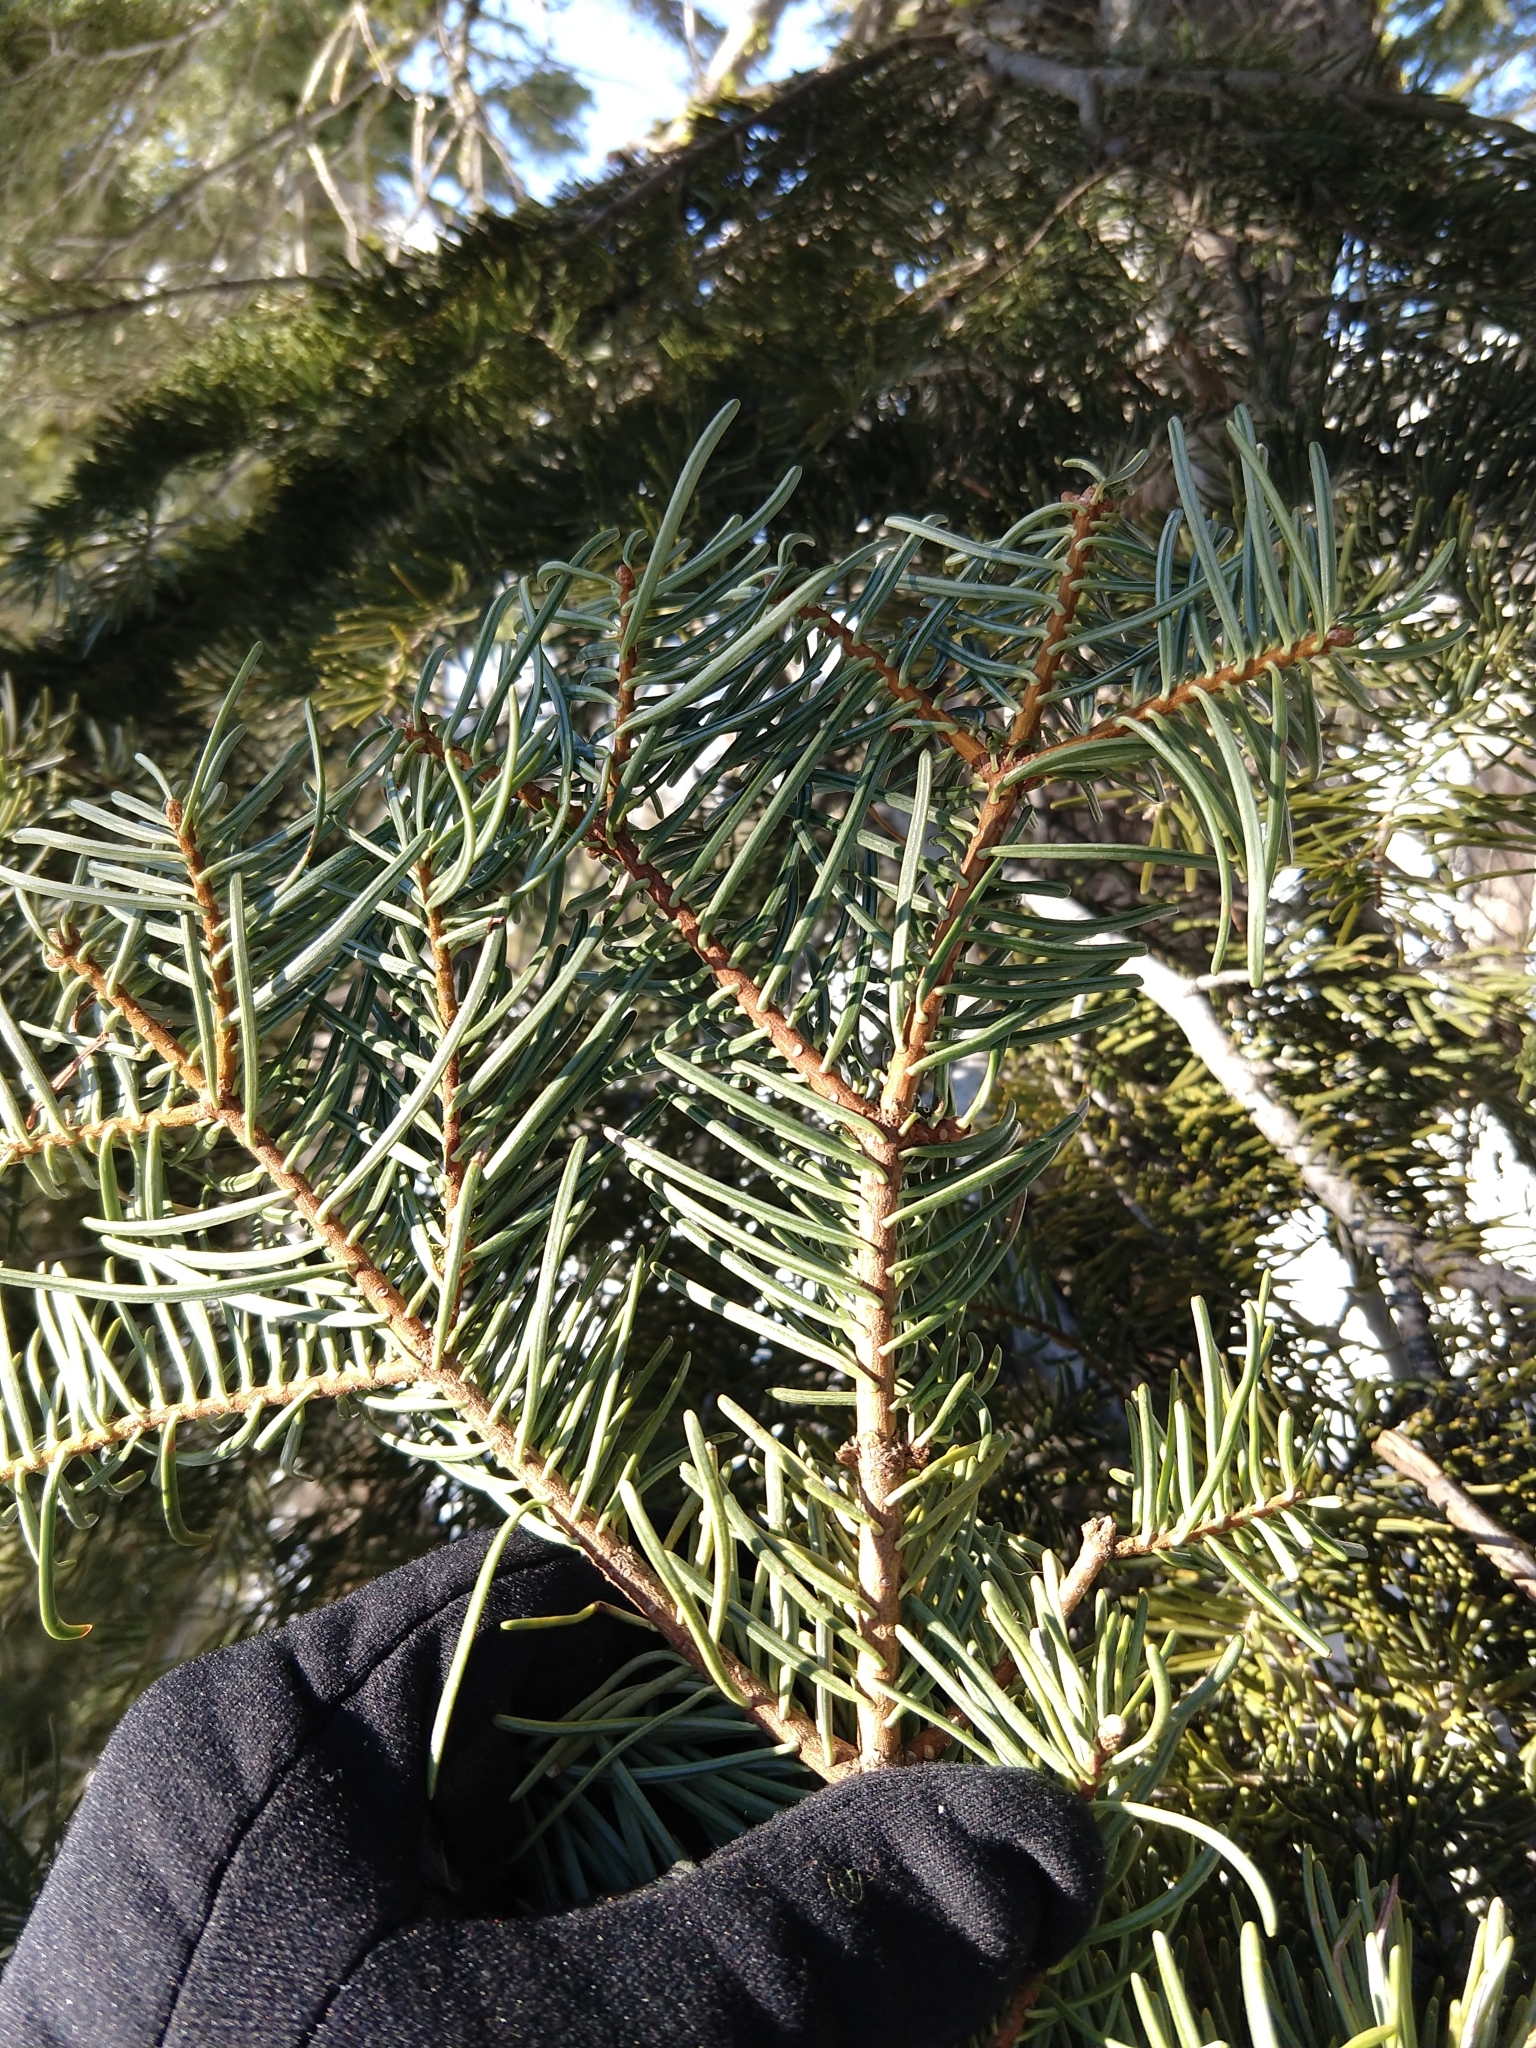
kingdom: Plantae
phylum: Tracheophyta
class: Pinopsida
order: Pinales
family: Pinaceae
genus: Abies
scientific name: Abies concolor
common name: Colorado fir
